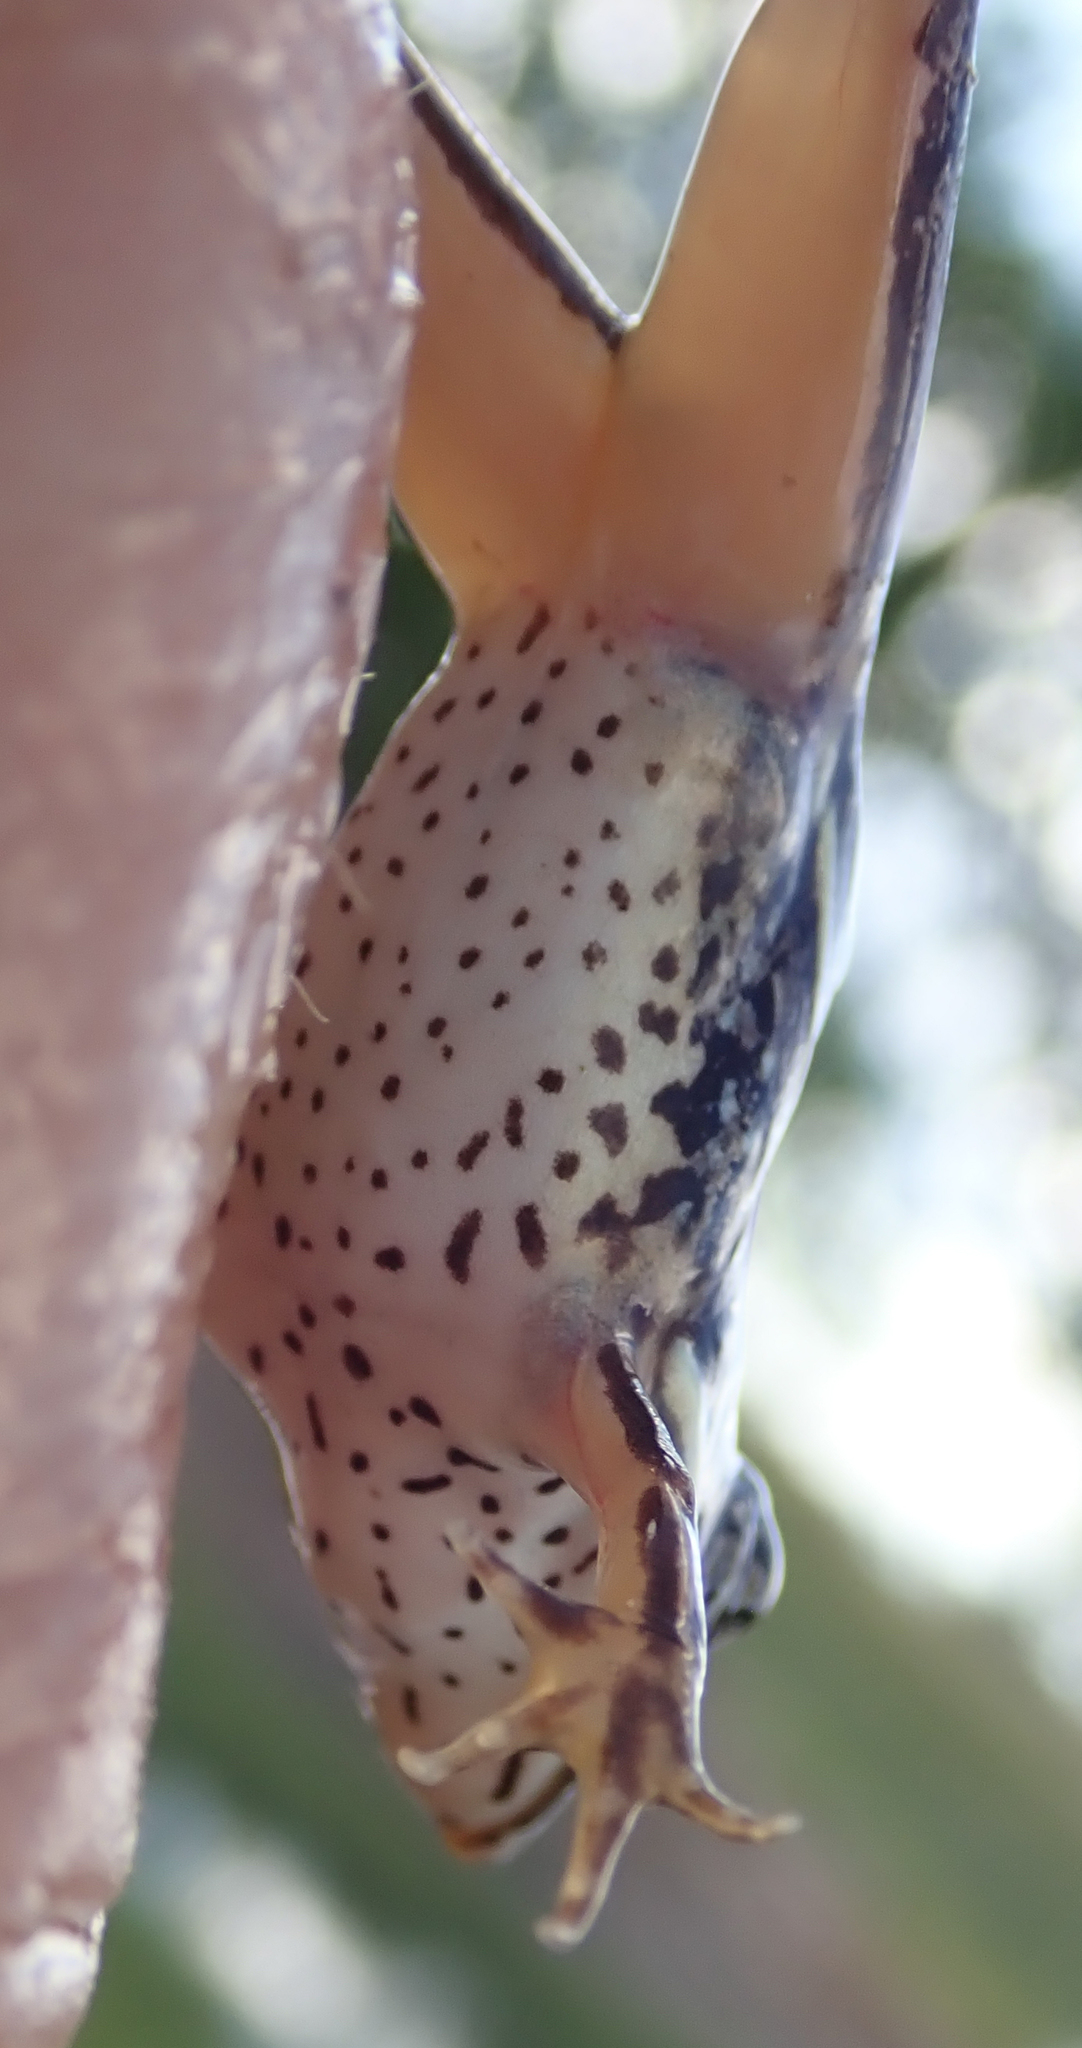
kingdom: Animalia
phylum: Chordata
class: Amphibia
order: Anura
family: Ptychadenidae
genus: Ptychadena
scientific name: Ptychadena subpunctata
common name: Bocage's grassland frog
